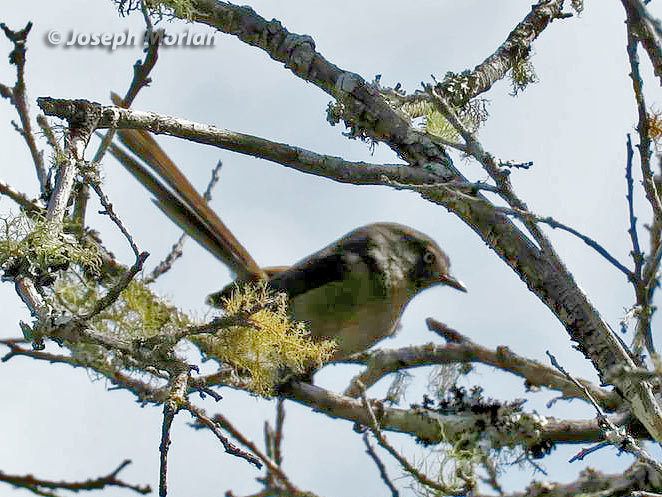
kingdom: Animalia
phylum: Chordata
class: Aves
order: Passeriformes
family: Sylviidae
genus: Chamaea
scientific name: Chamaea fasciata
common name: Wrentit
